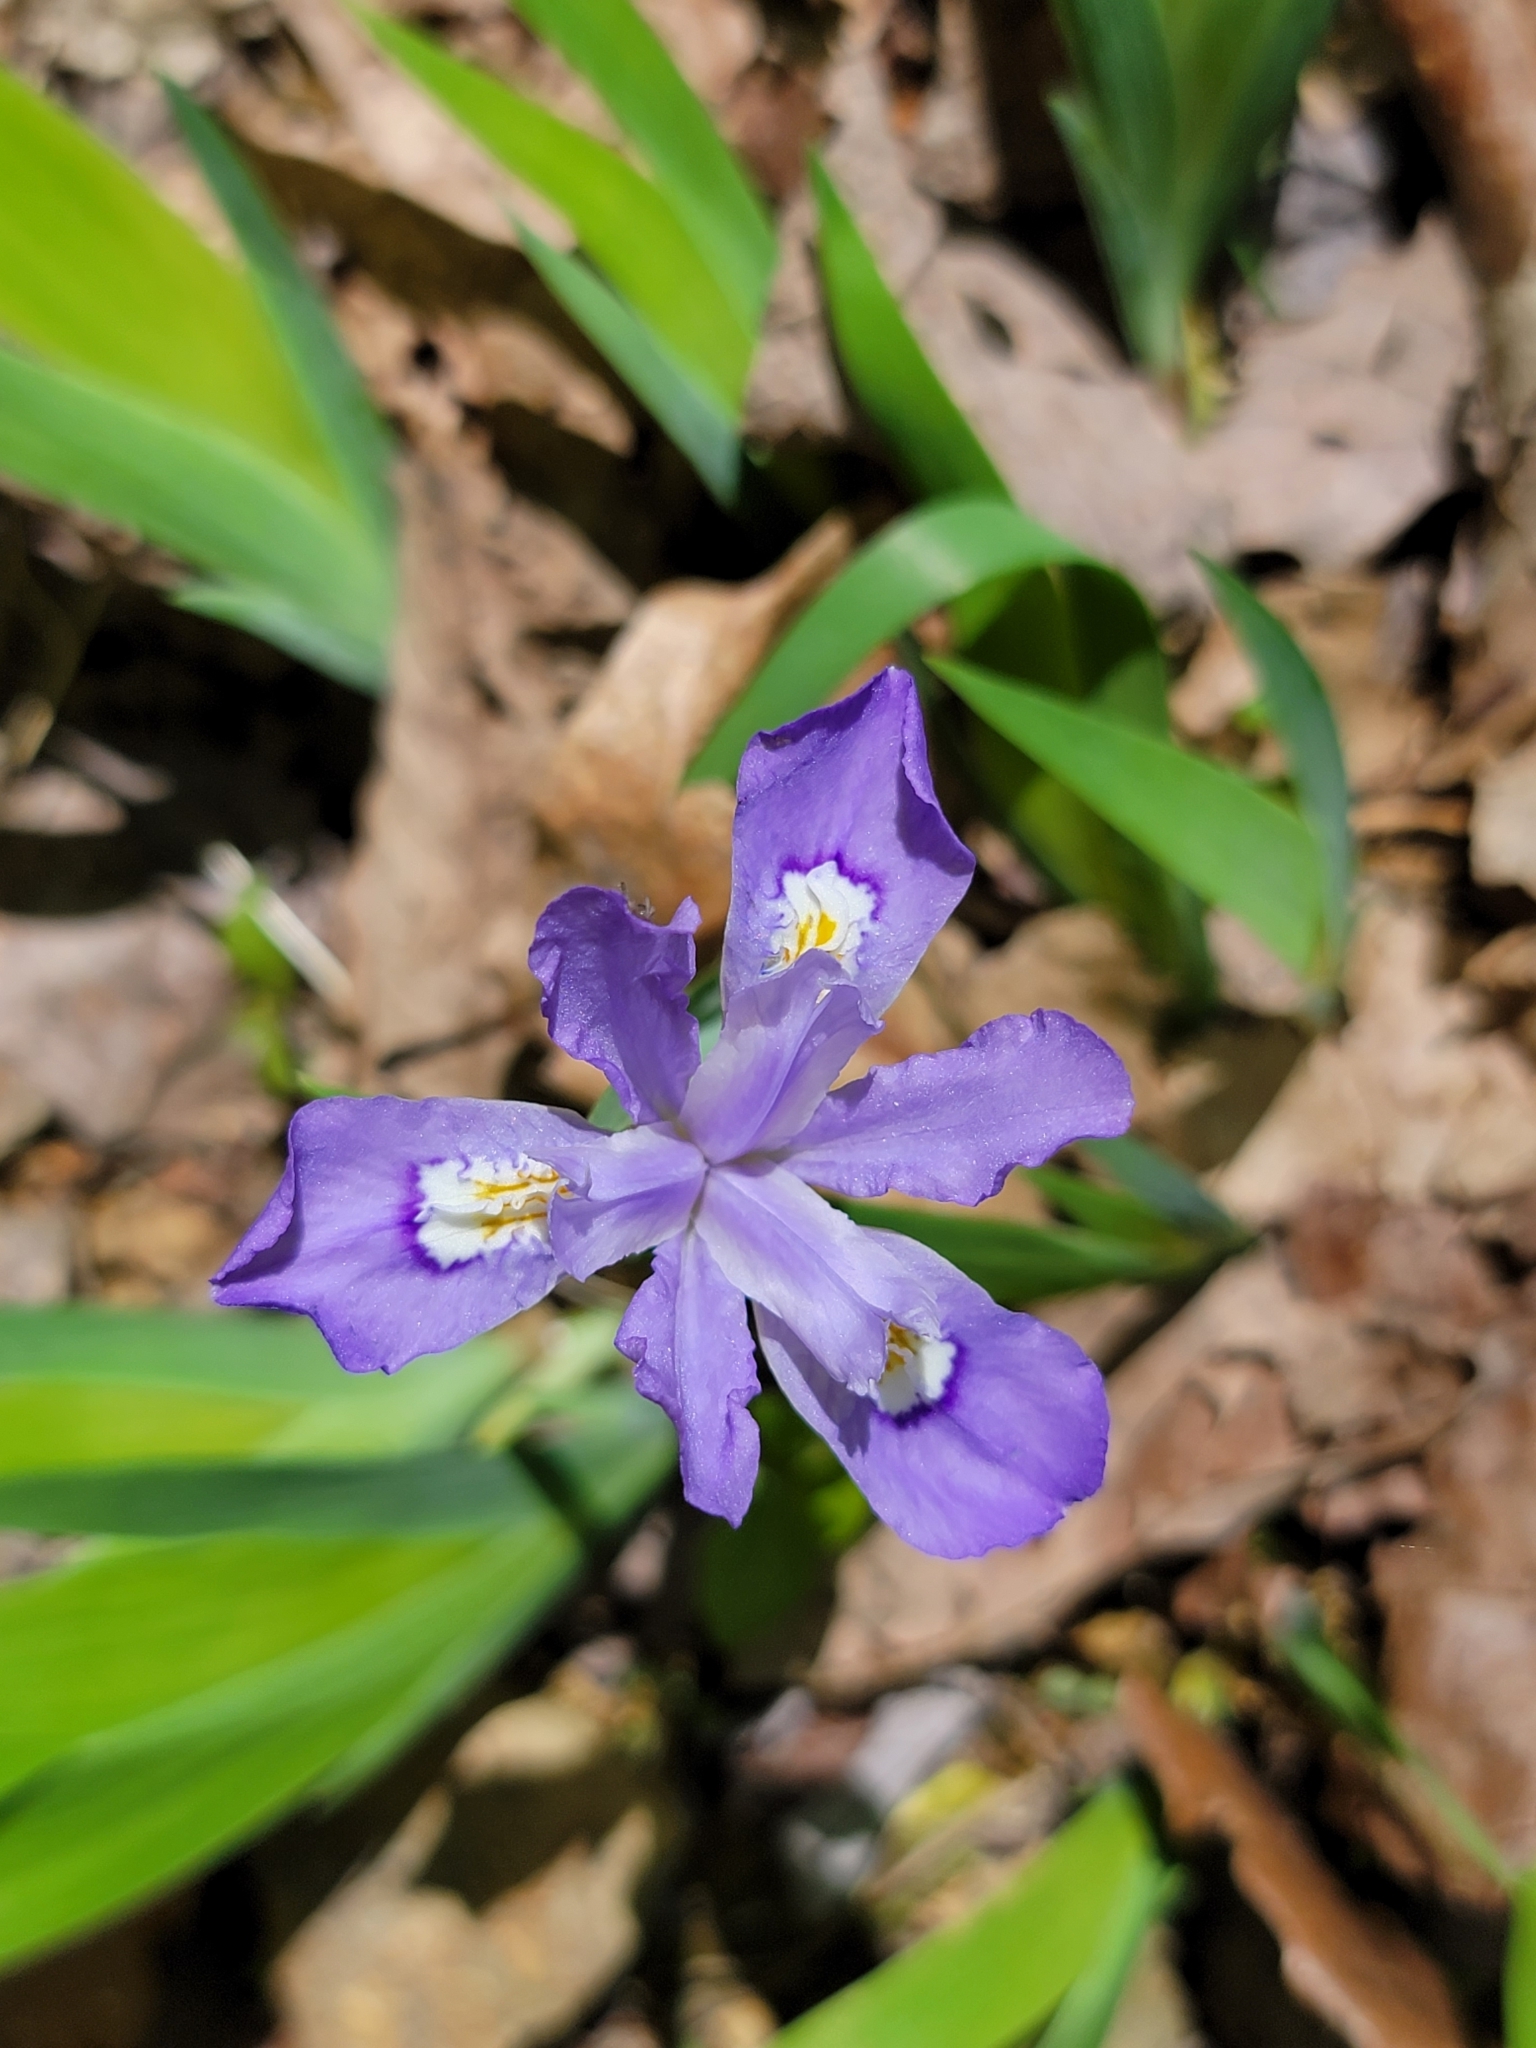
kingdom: Plantae
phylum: Tracheophyta
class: Liliopsida
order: Asparagales
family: Iridaceae
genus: Iris
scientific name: Iris cristata
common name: Crested iris
